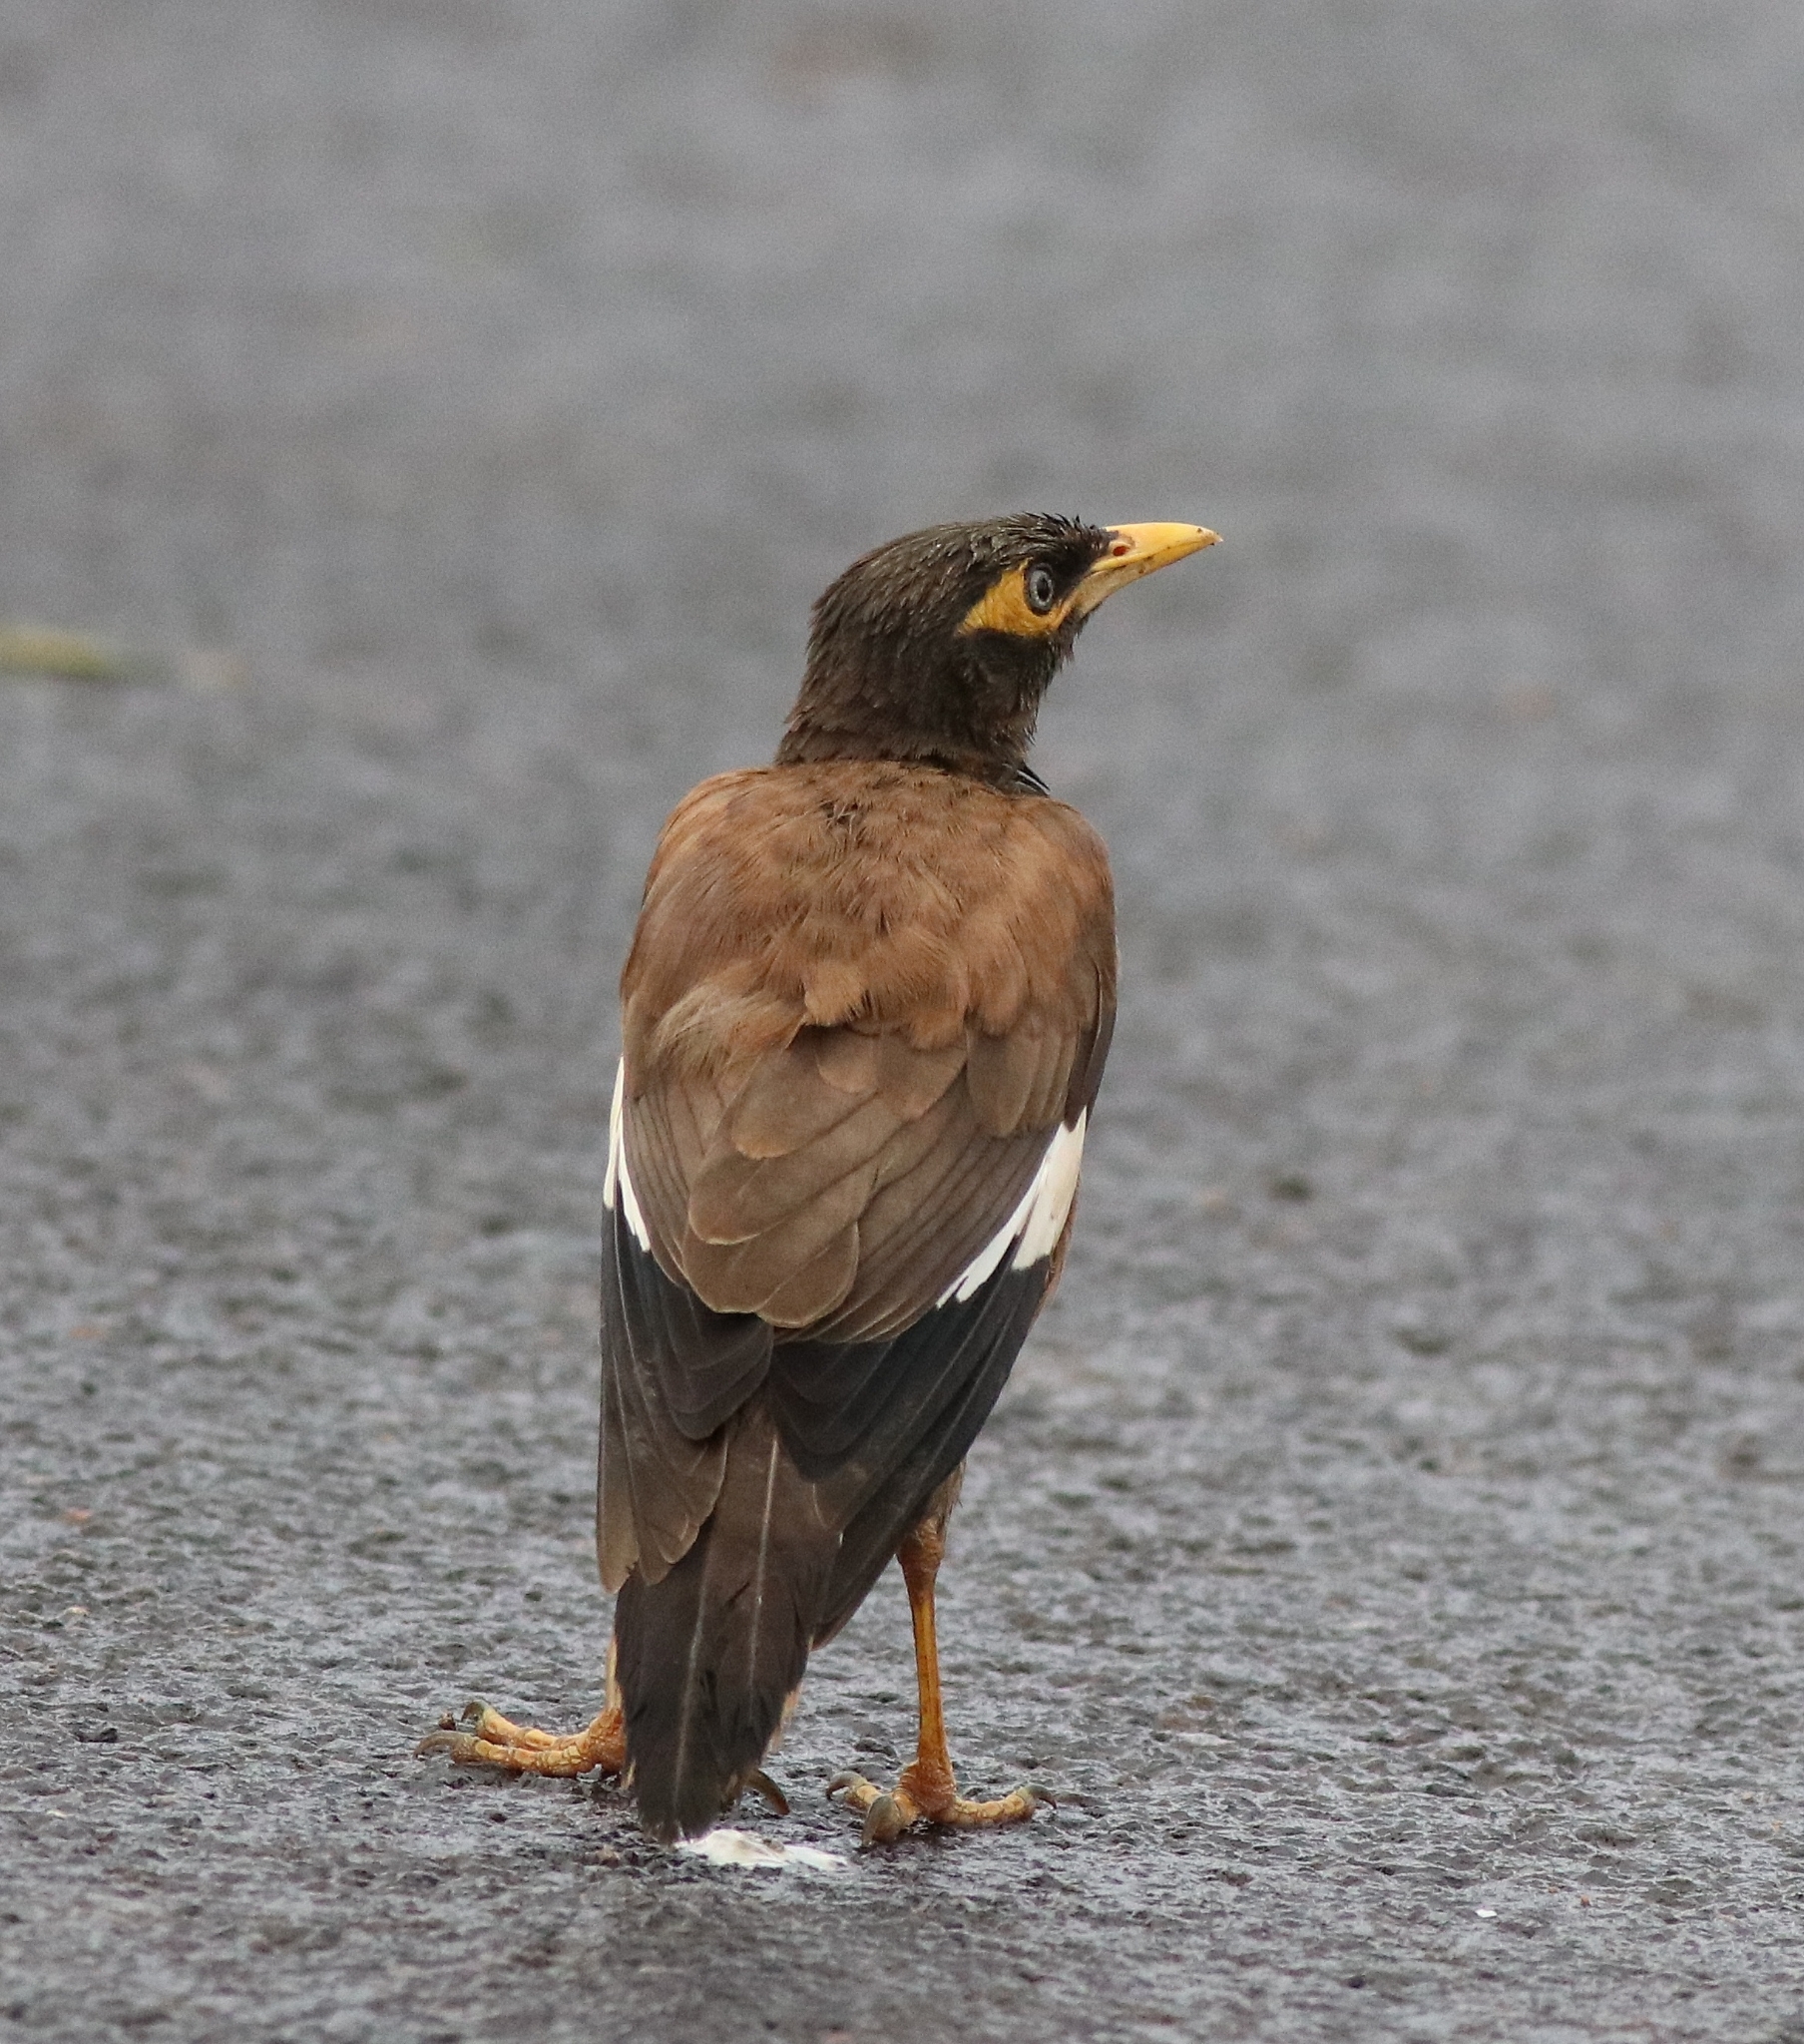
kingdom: Animalia
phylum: Chordata
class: Aves
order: Passeriformes
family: Sturnidae
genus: Acridotheres
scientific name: Acridotheres tristis
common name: Common myna
